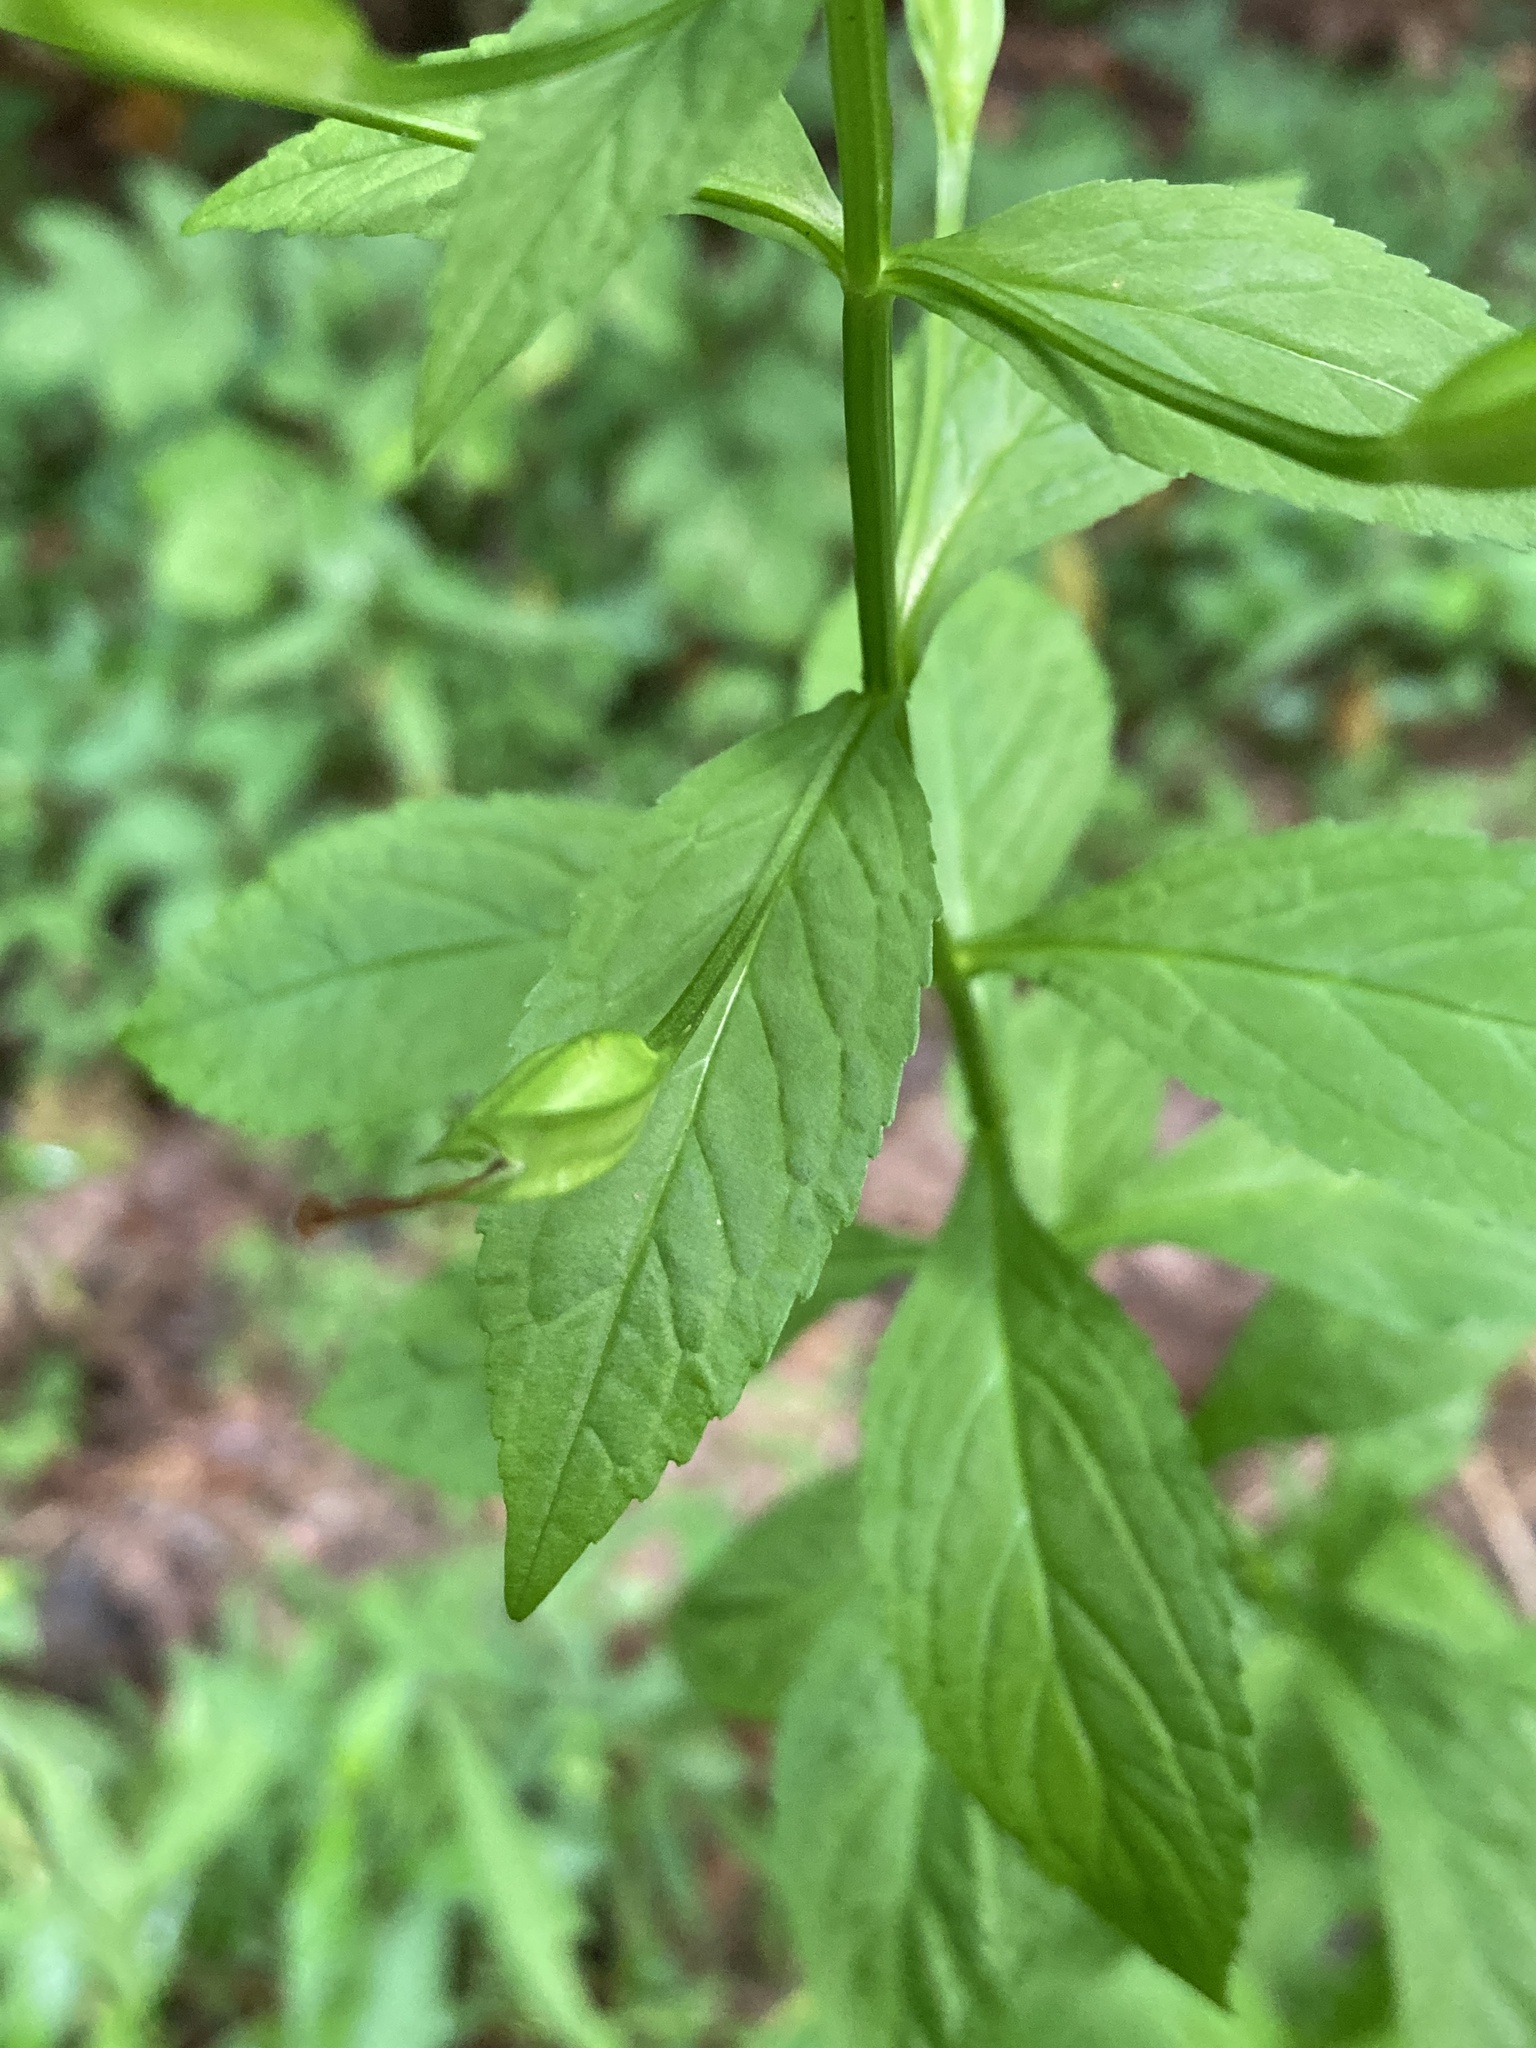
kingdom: Plantae
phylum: Tracheophyta
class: Magnoliopsida
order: Lamiales
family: Phrymaceae
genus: Mimulus
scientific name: Mimulus ringens
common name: Allegheny monkeyflower
